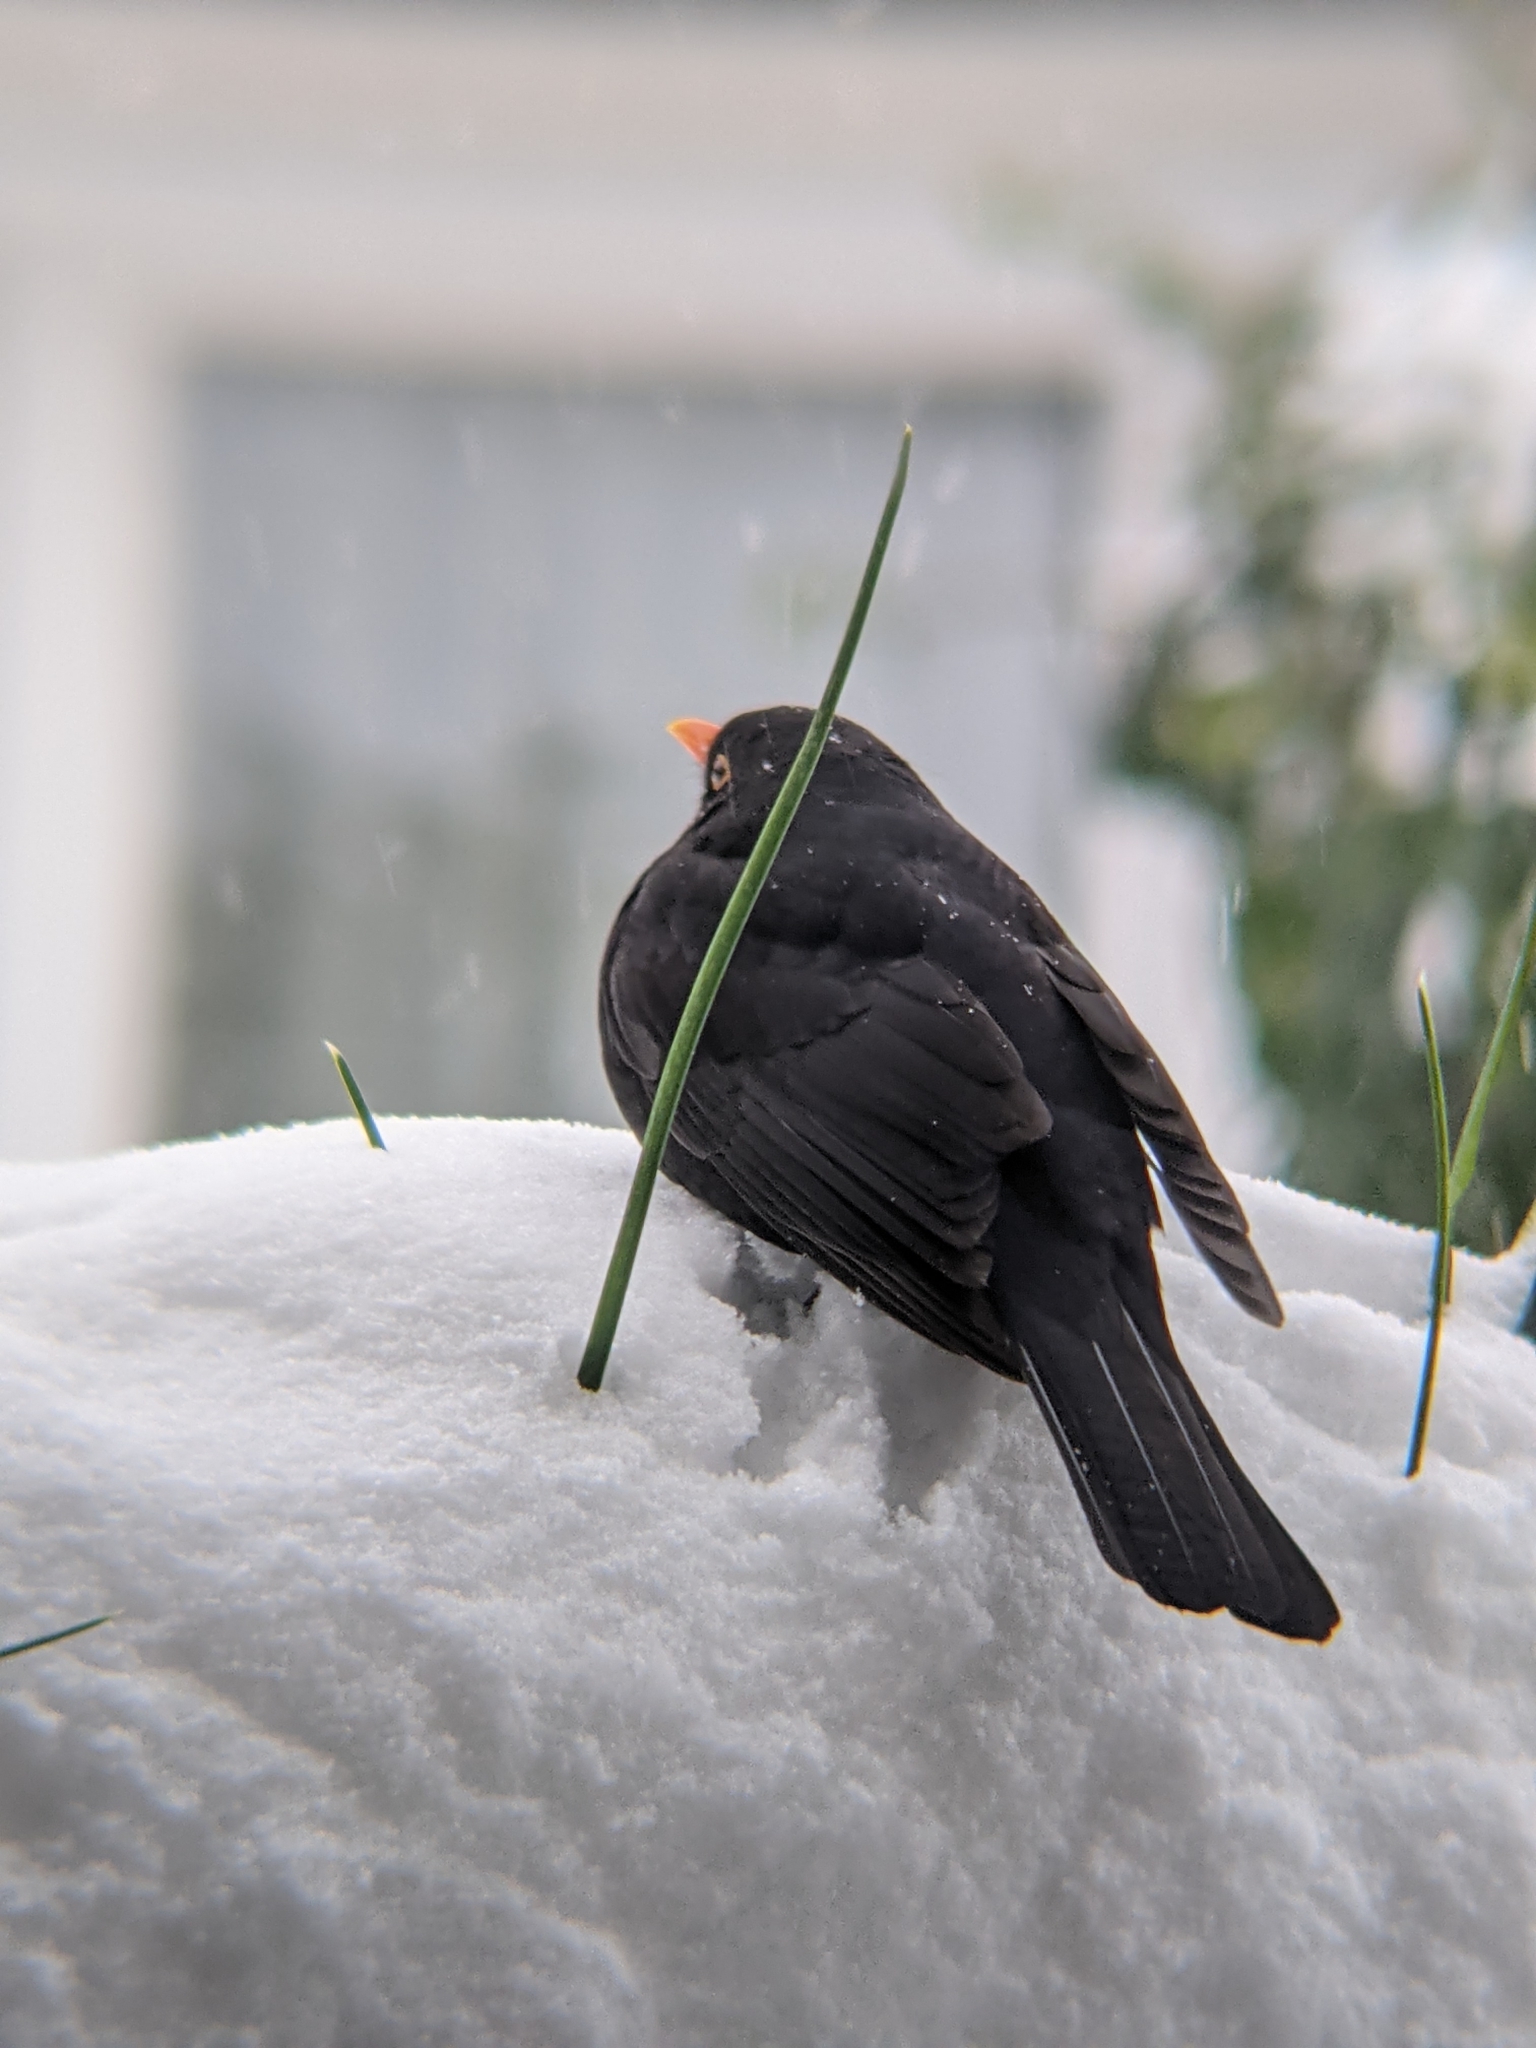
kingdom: Animalia
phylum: Chordata
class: Aves
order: Passeriformes
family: Turdidae
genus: Turdus
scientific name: Turdus merula
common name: Common blackbird
